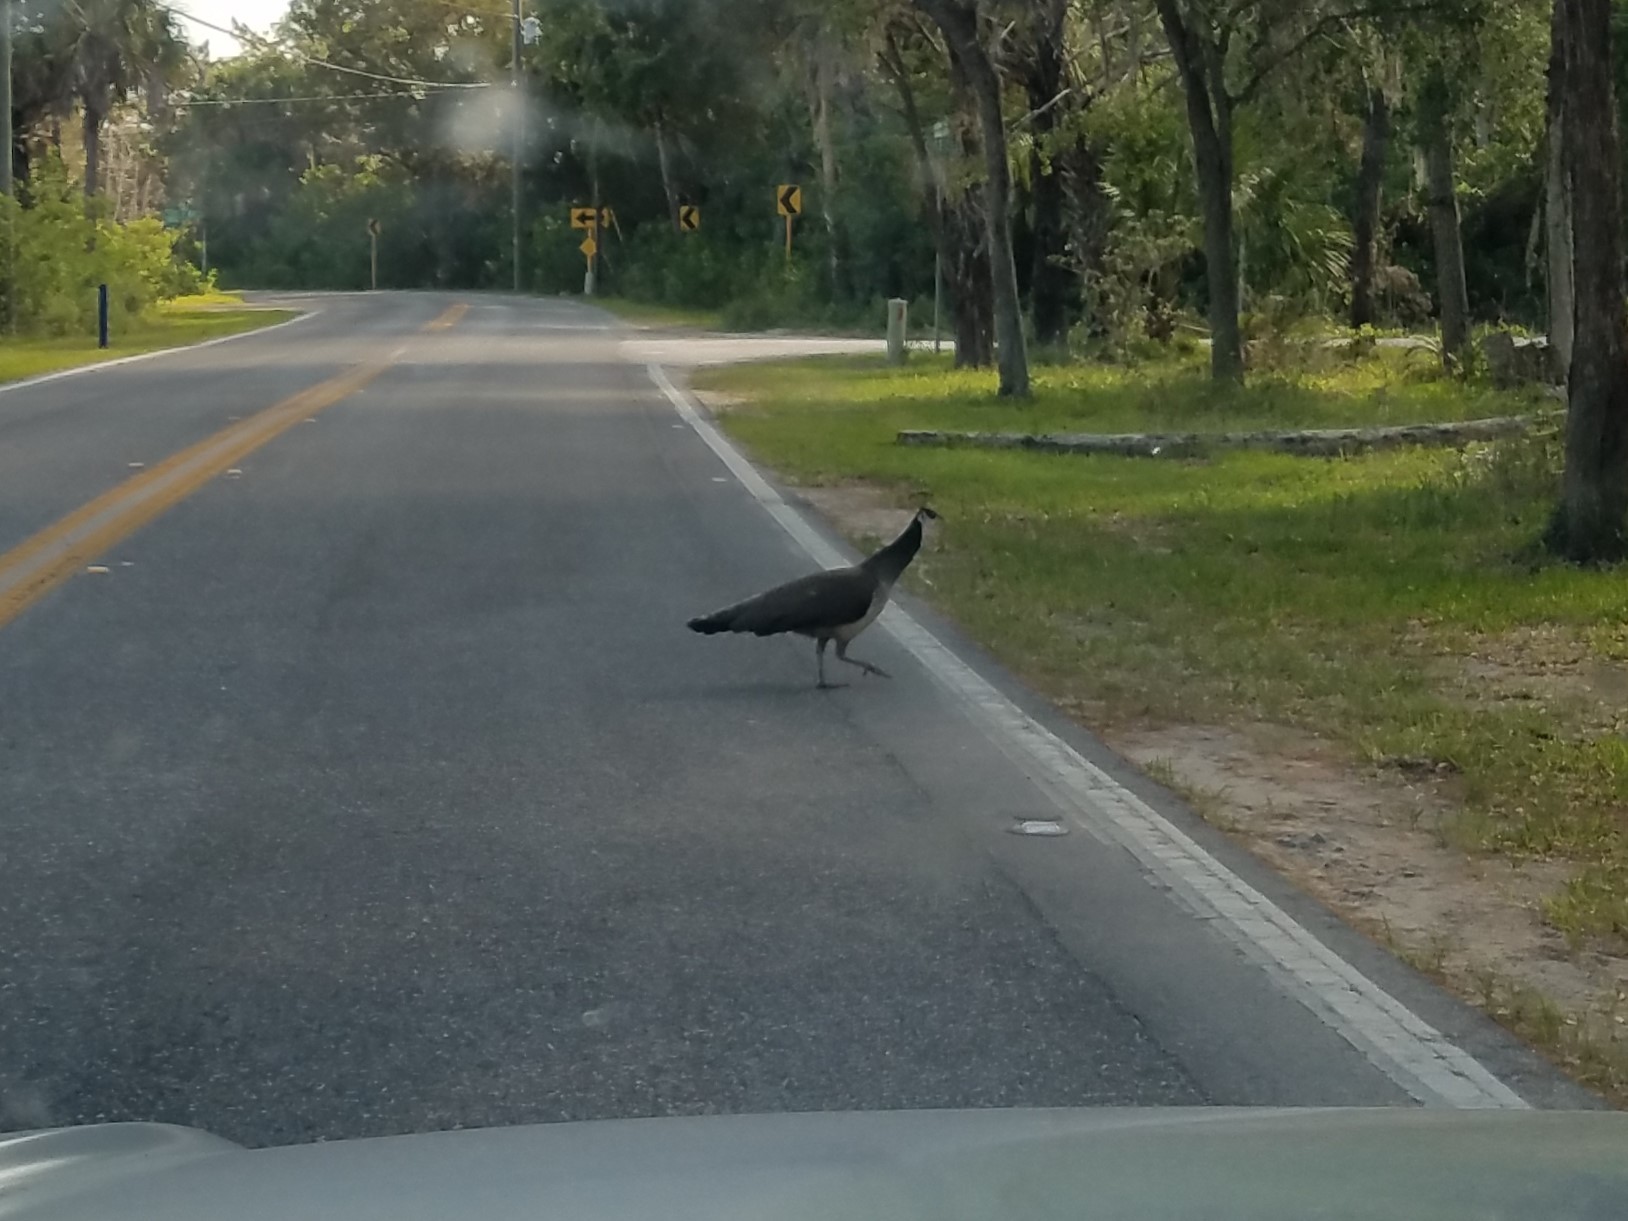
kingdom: Animalia
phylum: Chordata
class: Aves
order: Galliformes
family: Phasianidae
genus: Pavo
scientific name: Pavo cristatus
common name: Indian peafowl
